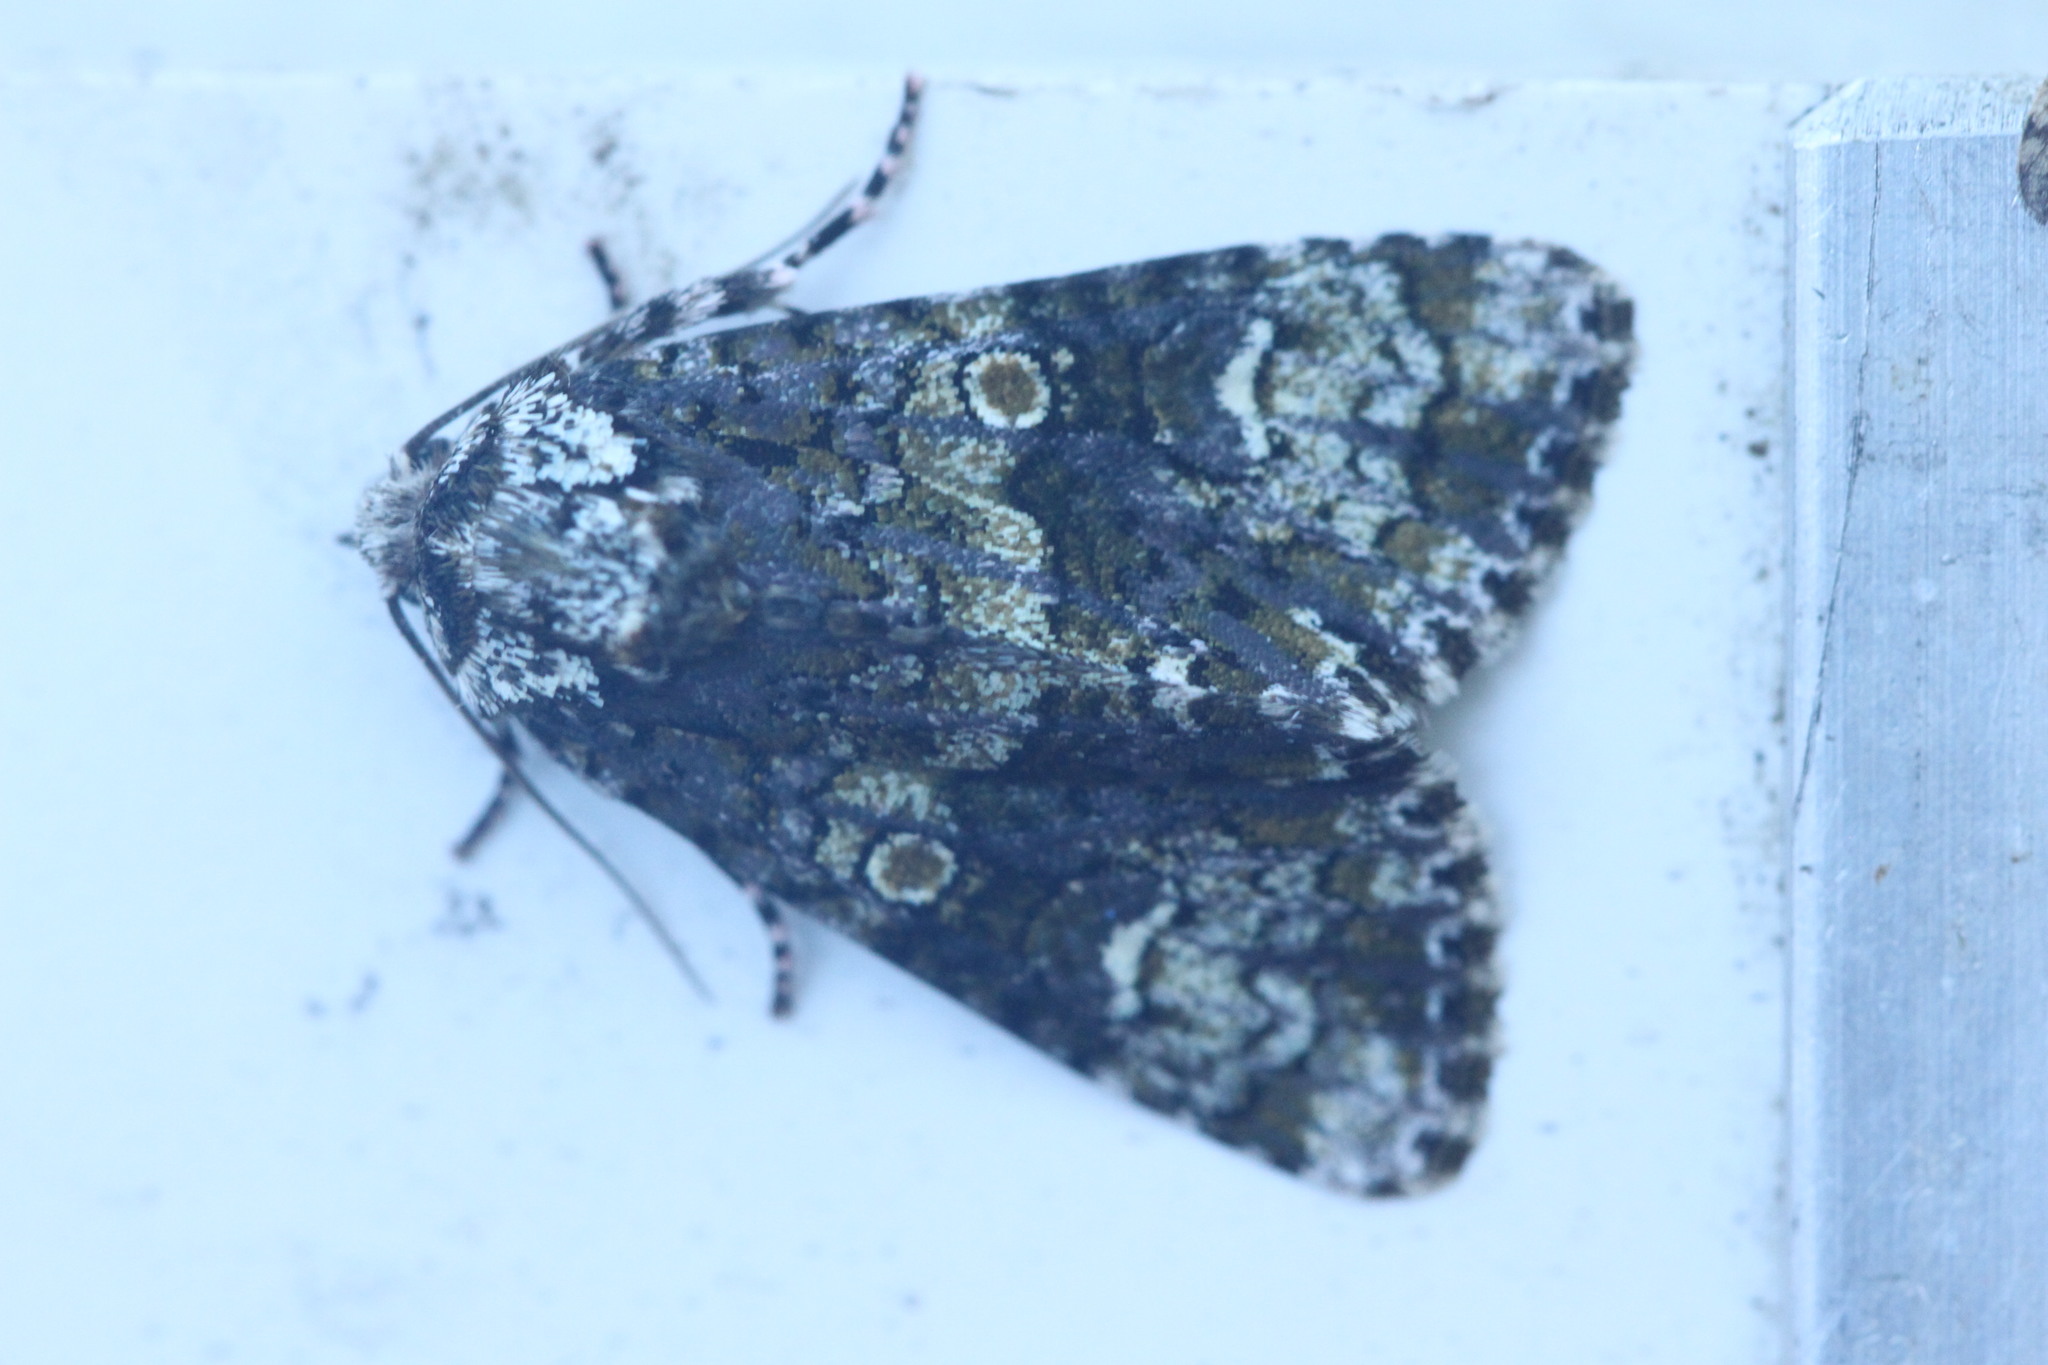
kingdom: Animalia
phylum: Arthropoda
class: Insecta
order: Lepidoptera
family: Noctuidae
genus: Craniophora
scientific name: Craniophora ligustri
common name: Coronet
